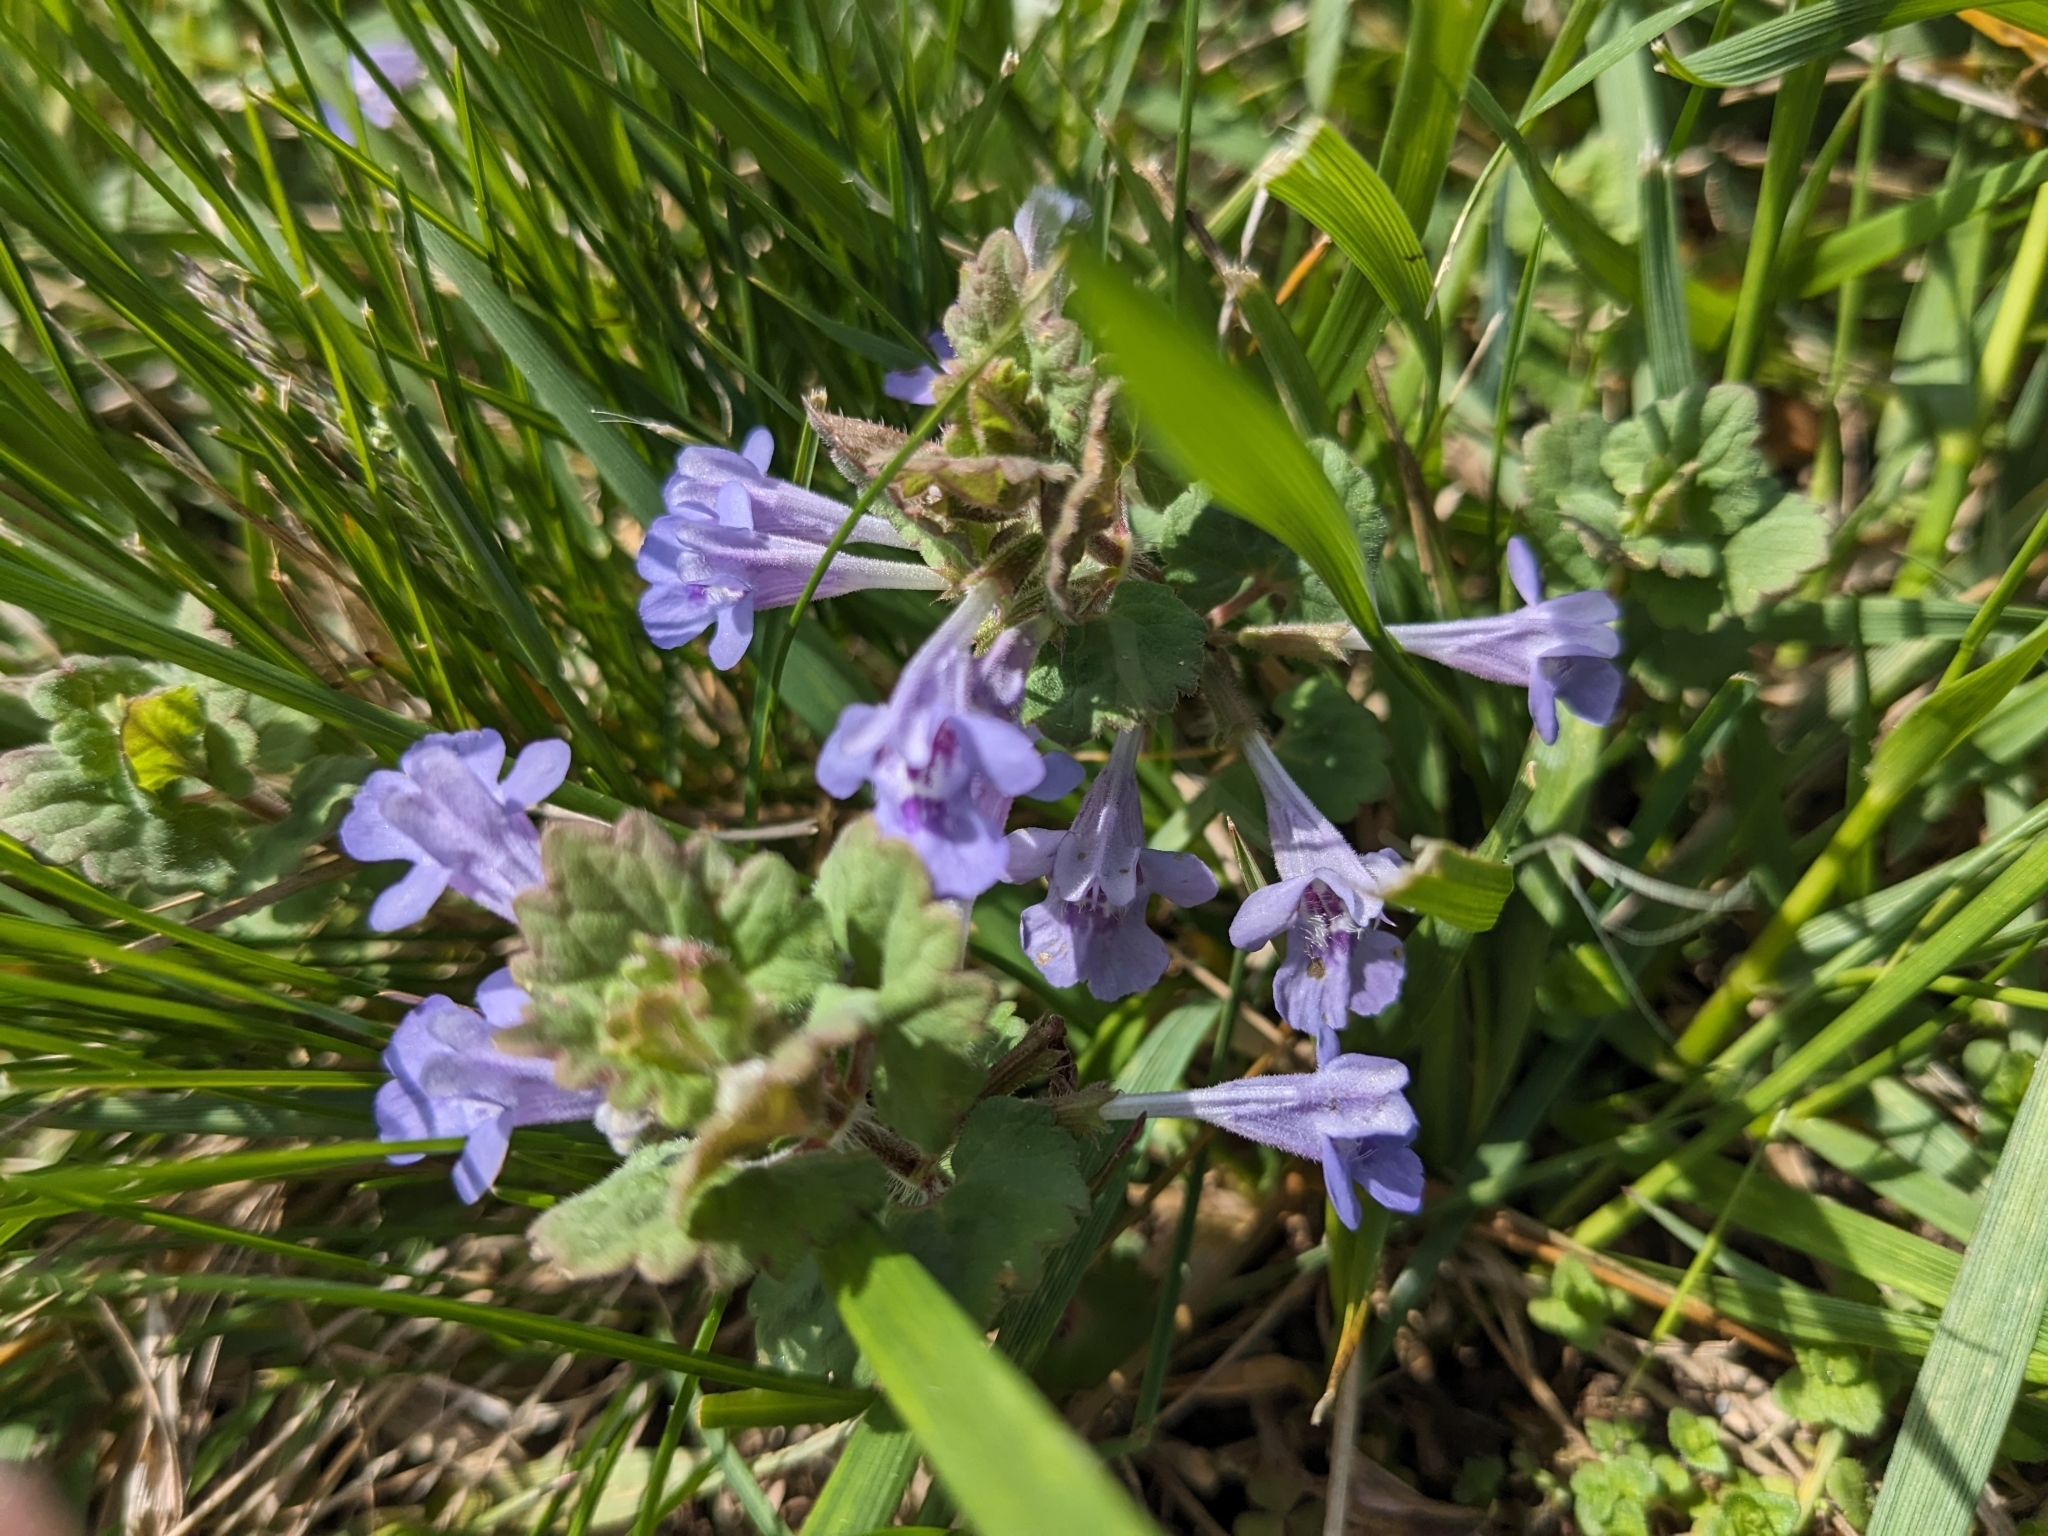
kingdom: Plantae
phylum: Tracheophyta
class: Magnoliopsida
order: Lamiales
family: Lamiaceae
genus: Glechoma
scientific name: Glechoma hederacea
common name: Ground ivy
